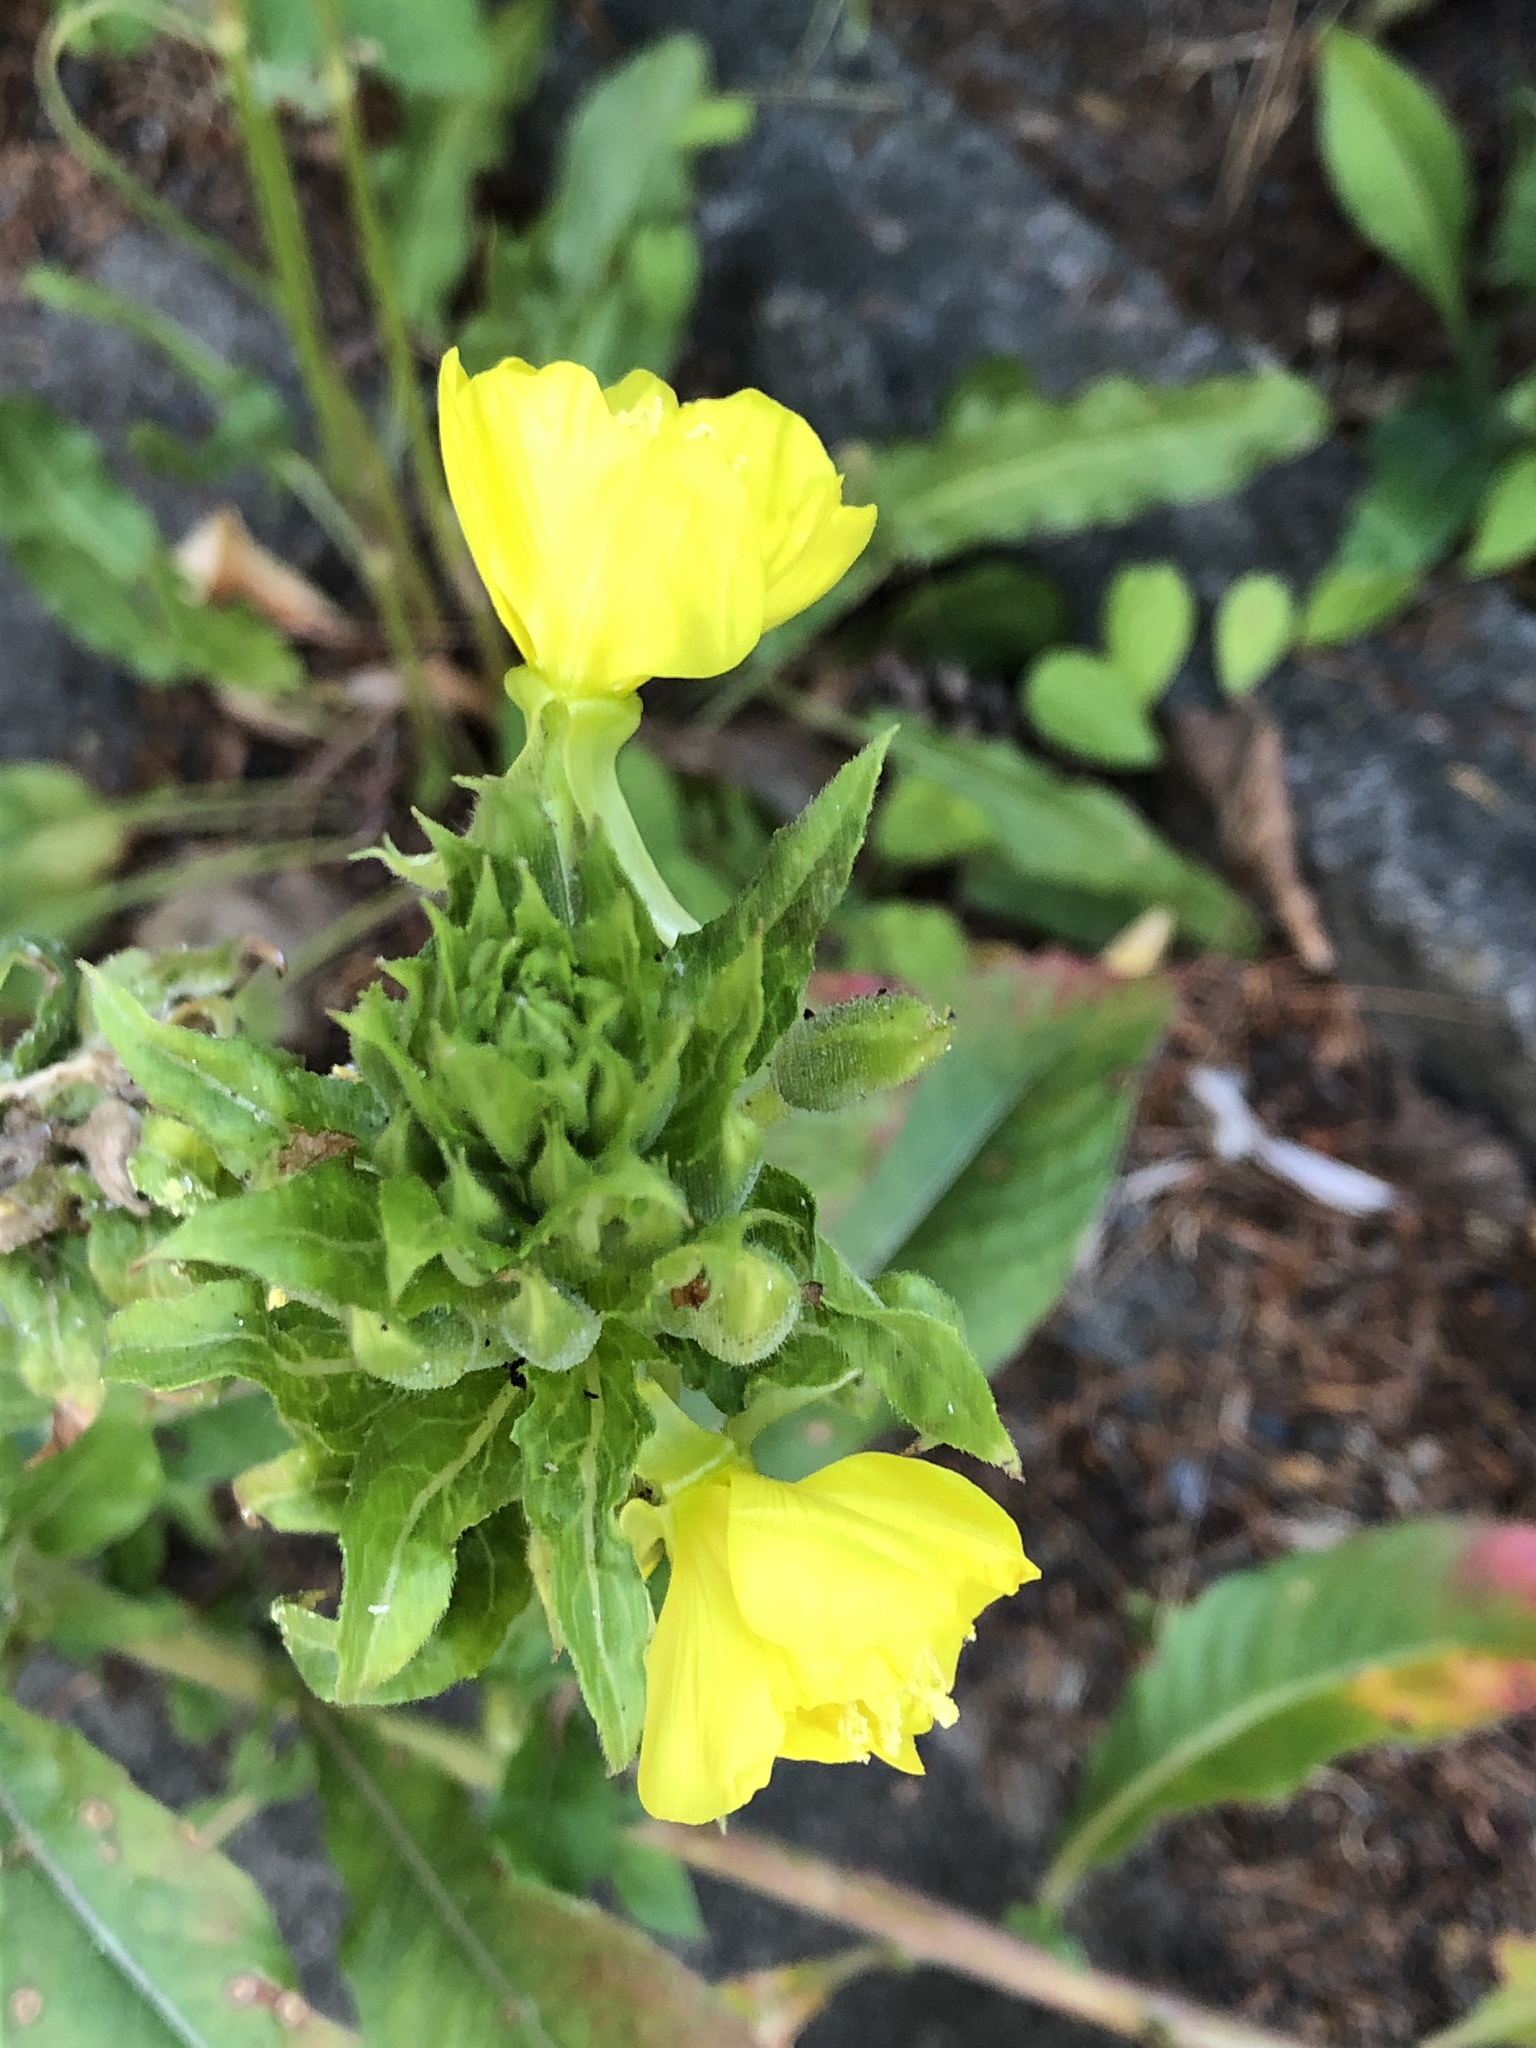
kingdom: Plantae
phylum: Tracheophyta
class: Magnoliopsida
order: Myrtales
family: Onagraceae
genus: Oenothera
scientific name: Oenothera biennis
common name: Common evening-primrose
